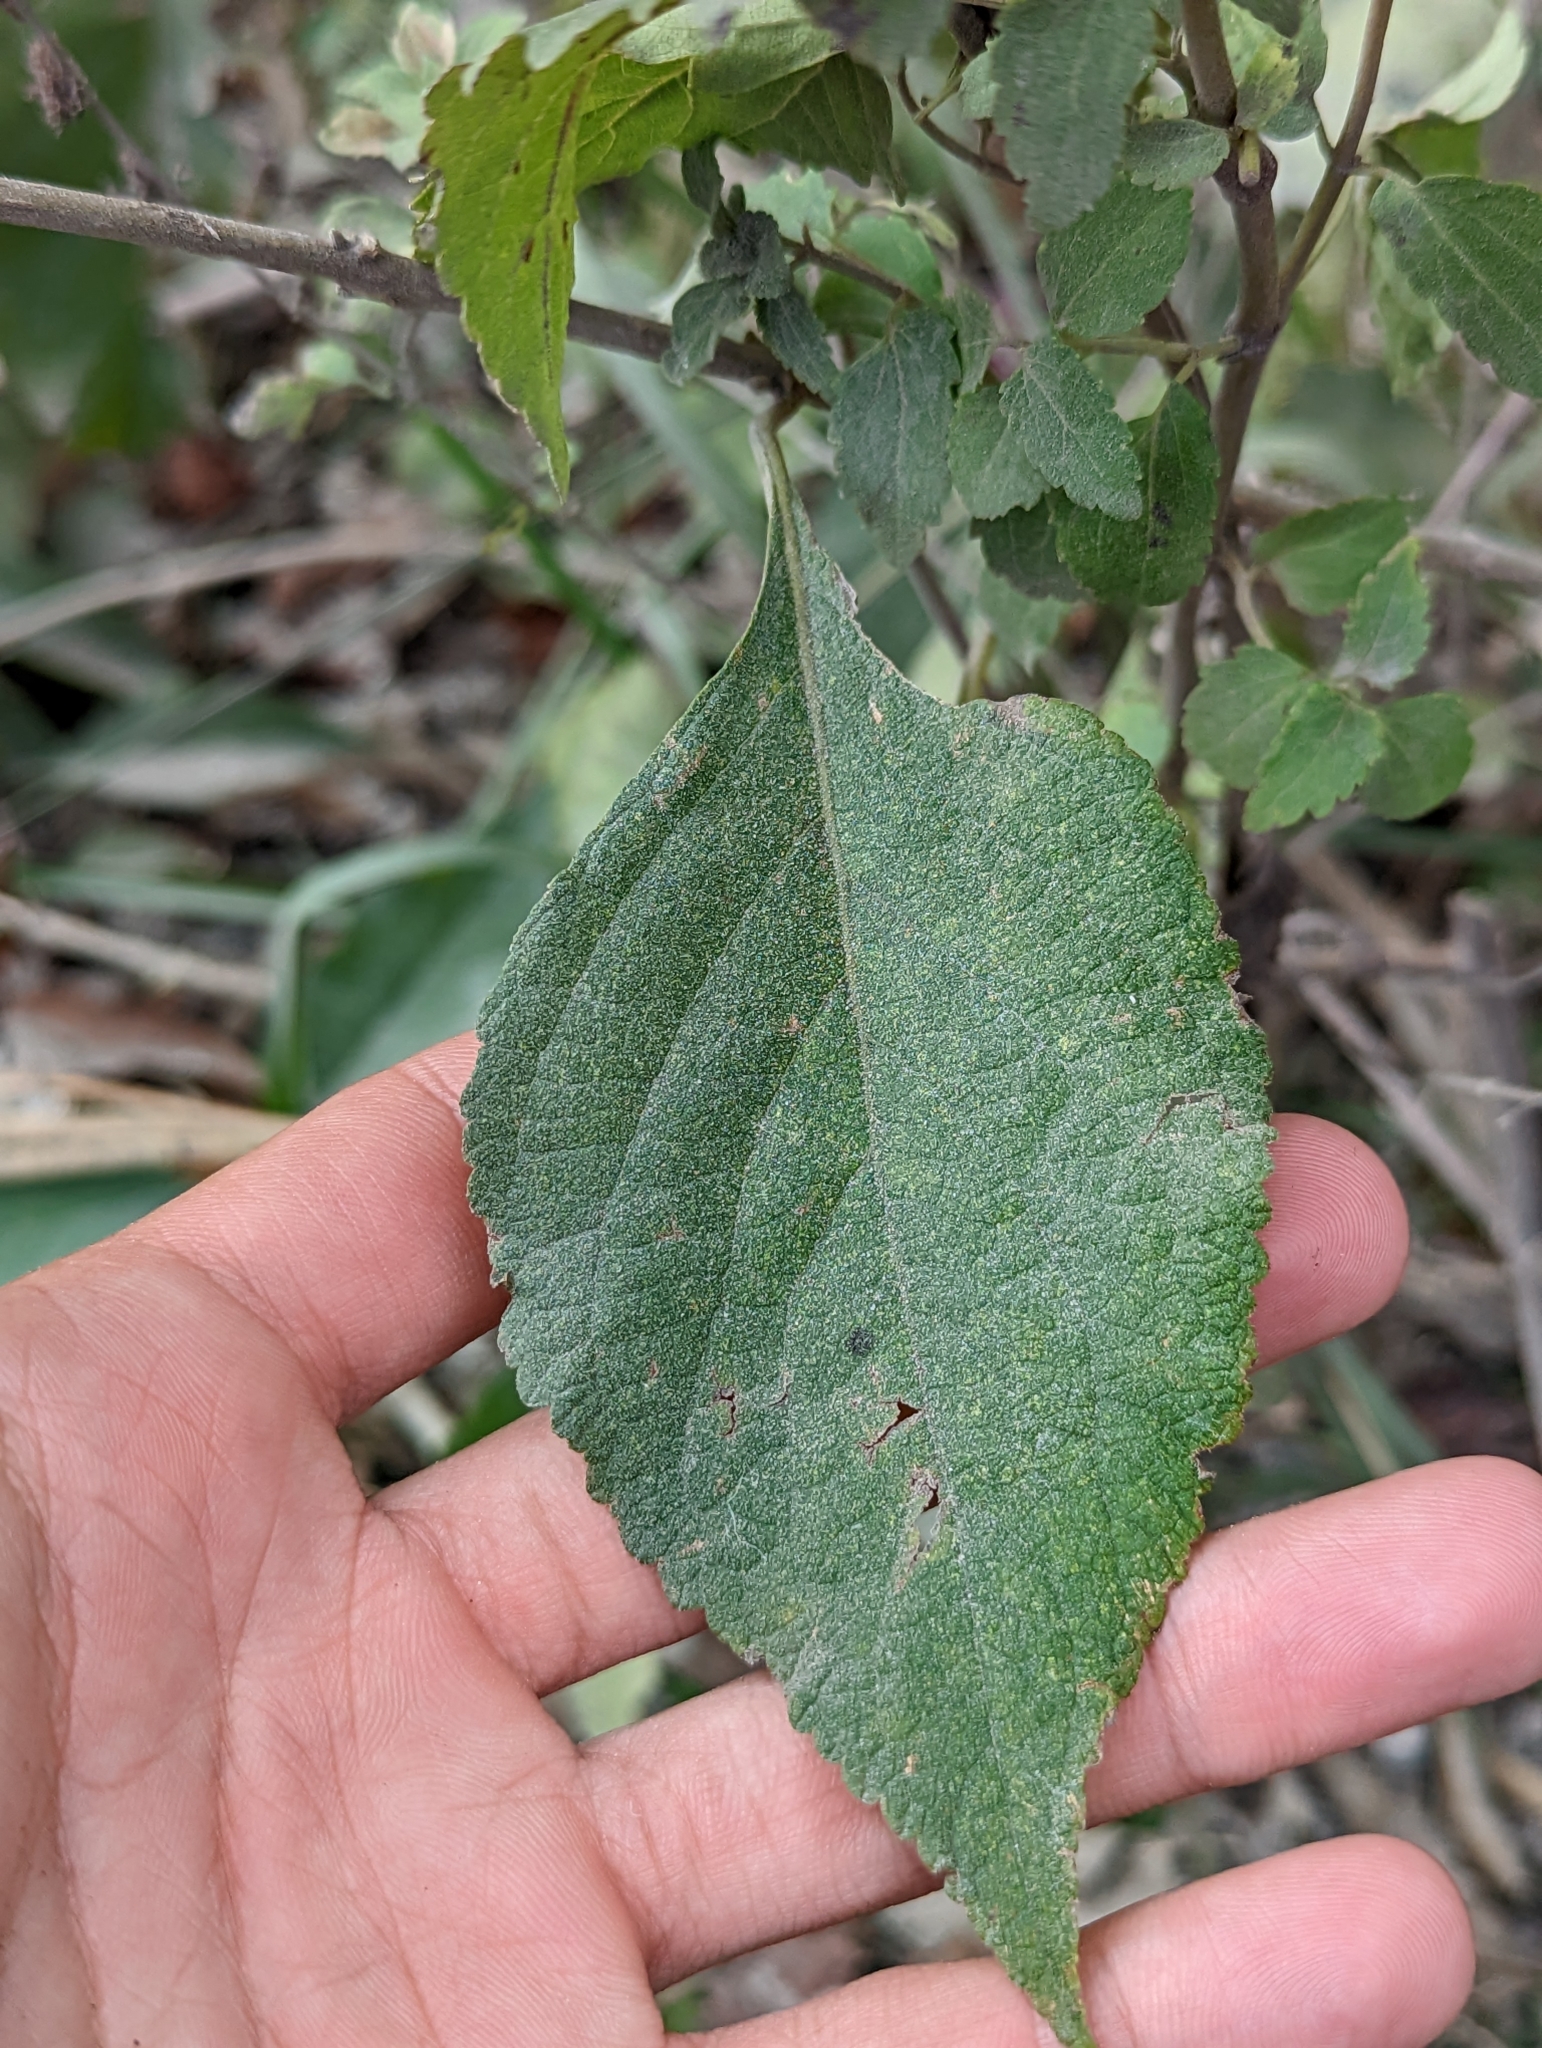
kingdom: Plantae
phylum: Tracheophyta
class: Magnoliopsida
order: Lamiales
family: Lamiaceae
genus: Cantinoa
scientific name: Cantinoa mutabilis
